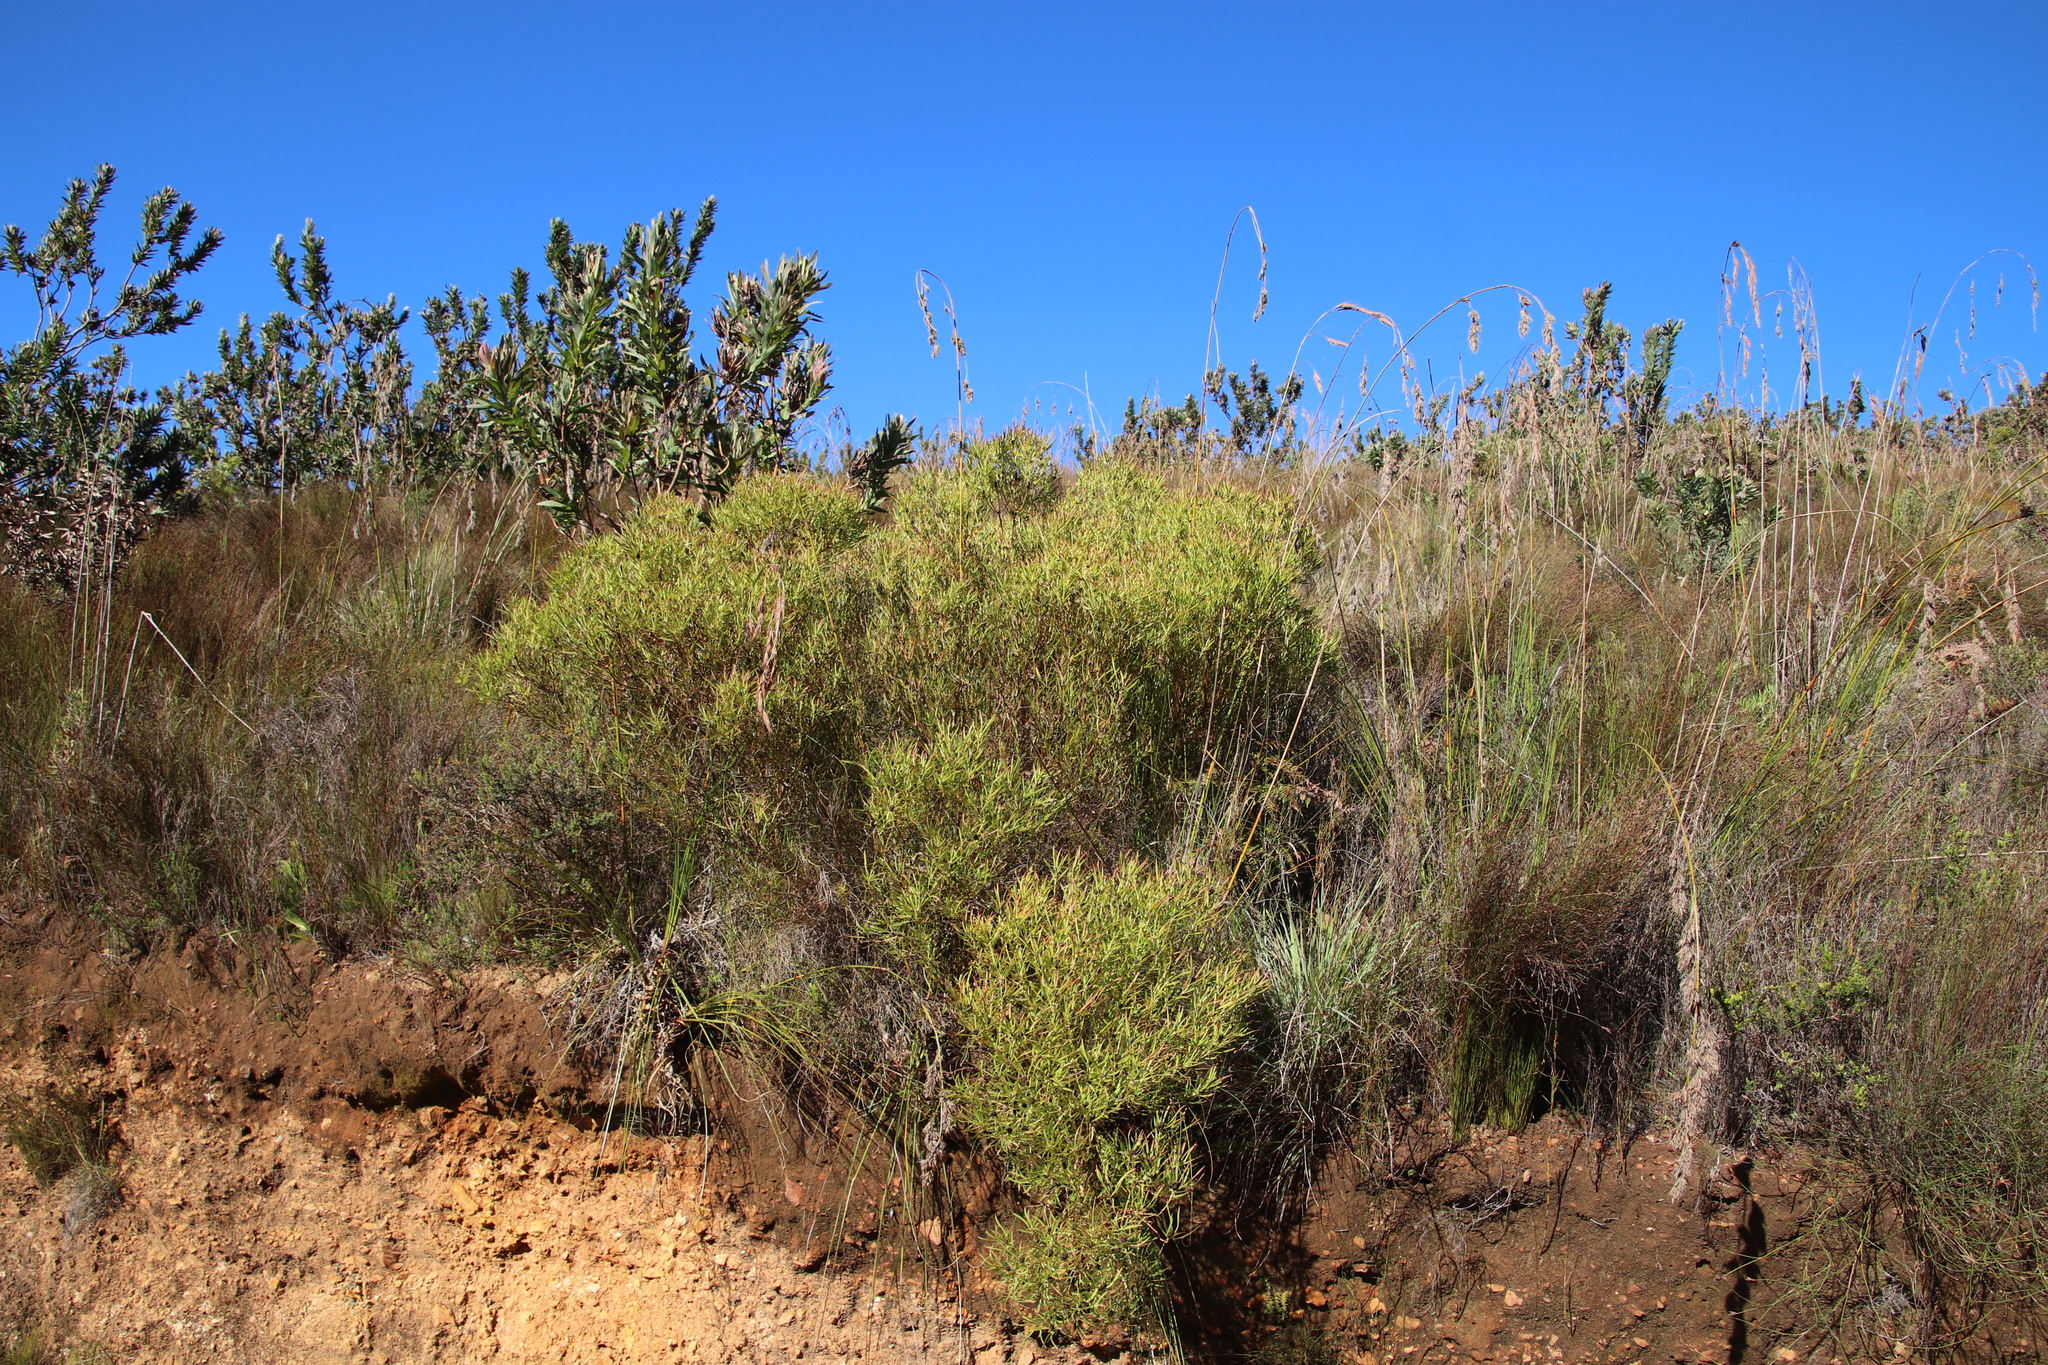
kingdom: Plantae
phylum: Tracheophyta
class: Magnoliopsida
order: Proteales
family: Proteaceae
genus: Leucadendron
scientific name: Leucadendron salignum
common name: Common sunshine conebush
